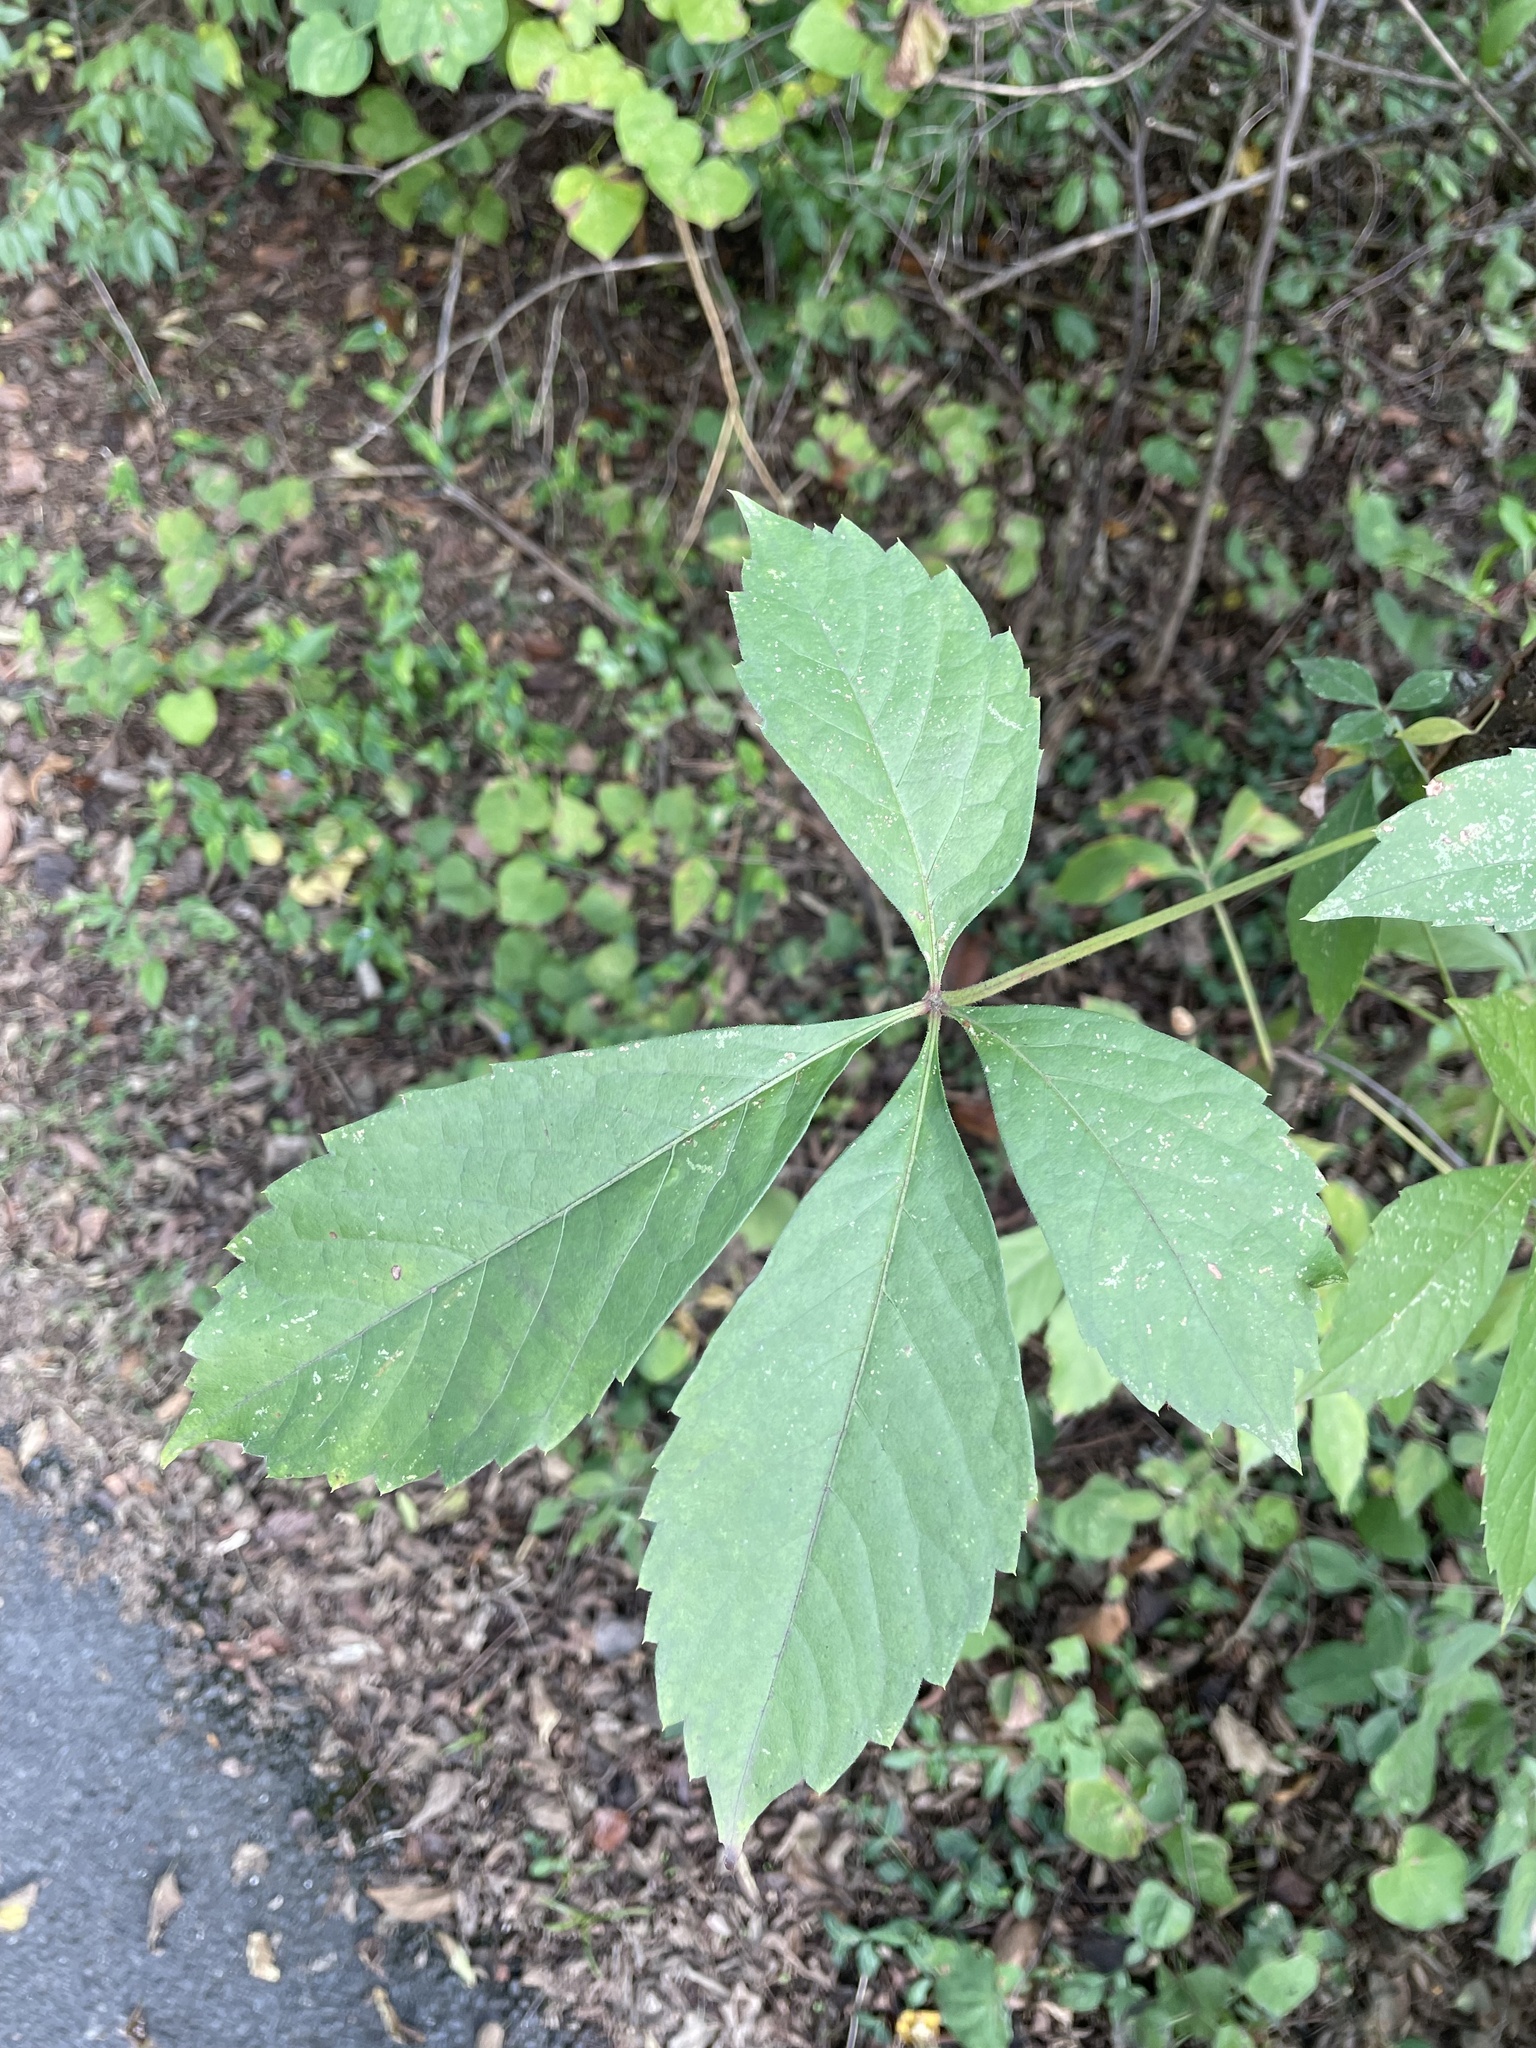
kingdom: Plantae
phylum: Tracheophyta
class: Magnoliopsida
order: Vitales
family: Vitaceae
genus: Parthenocissus
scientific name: Parthenocissus quinquefolia
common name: Virginia-creeper
